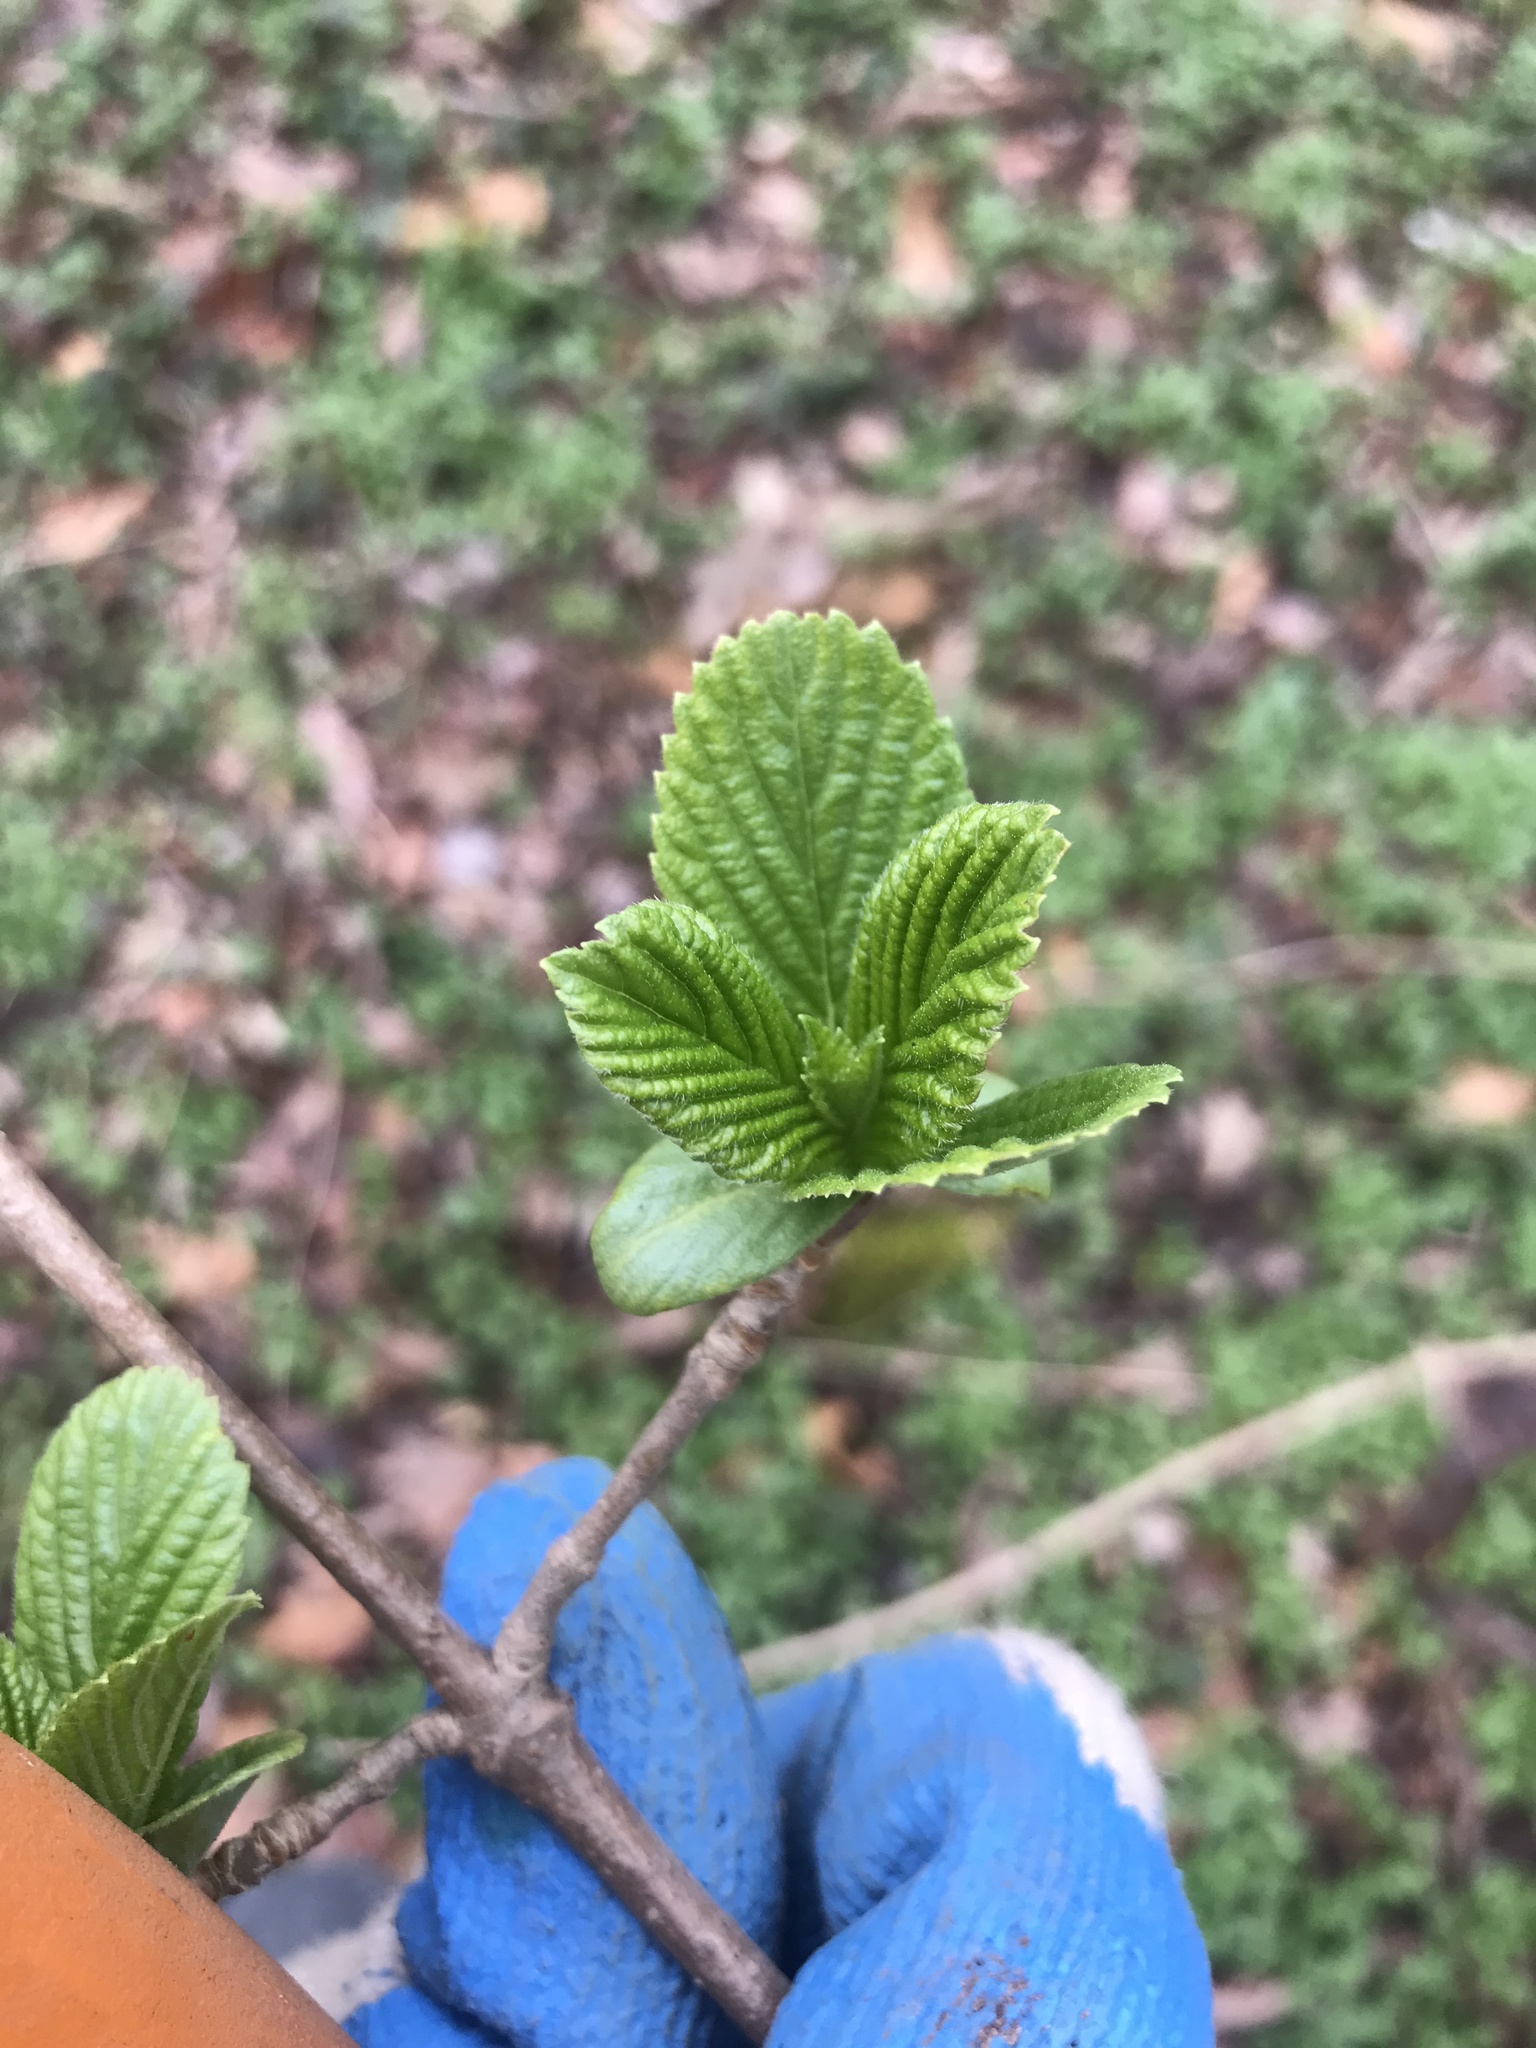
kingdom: Plantae
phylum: Tracheophyta
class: Magnoliopsida
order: Dipsacales
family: Viburnaceae
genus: Viburnum
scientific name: Viburnum sieboldii
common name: Siebold's arrowwood
